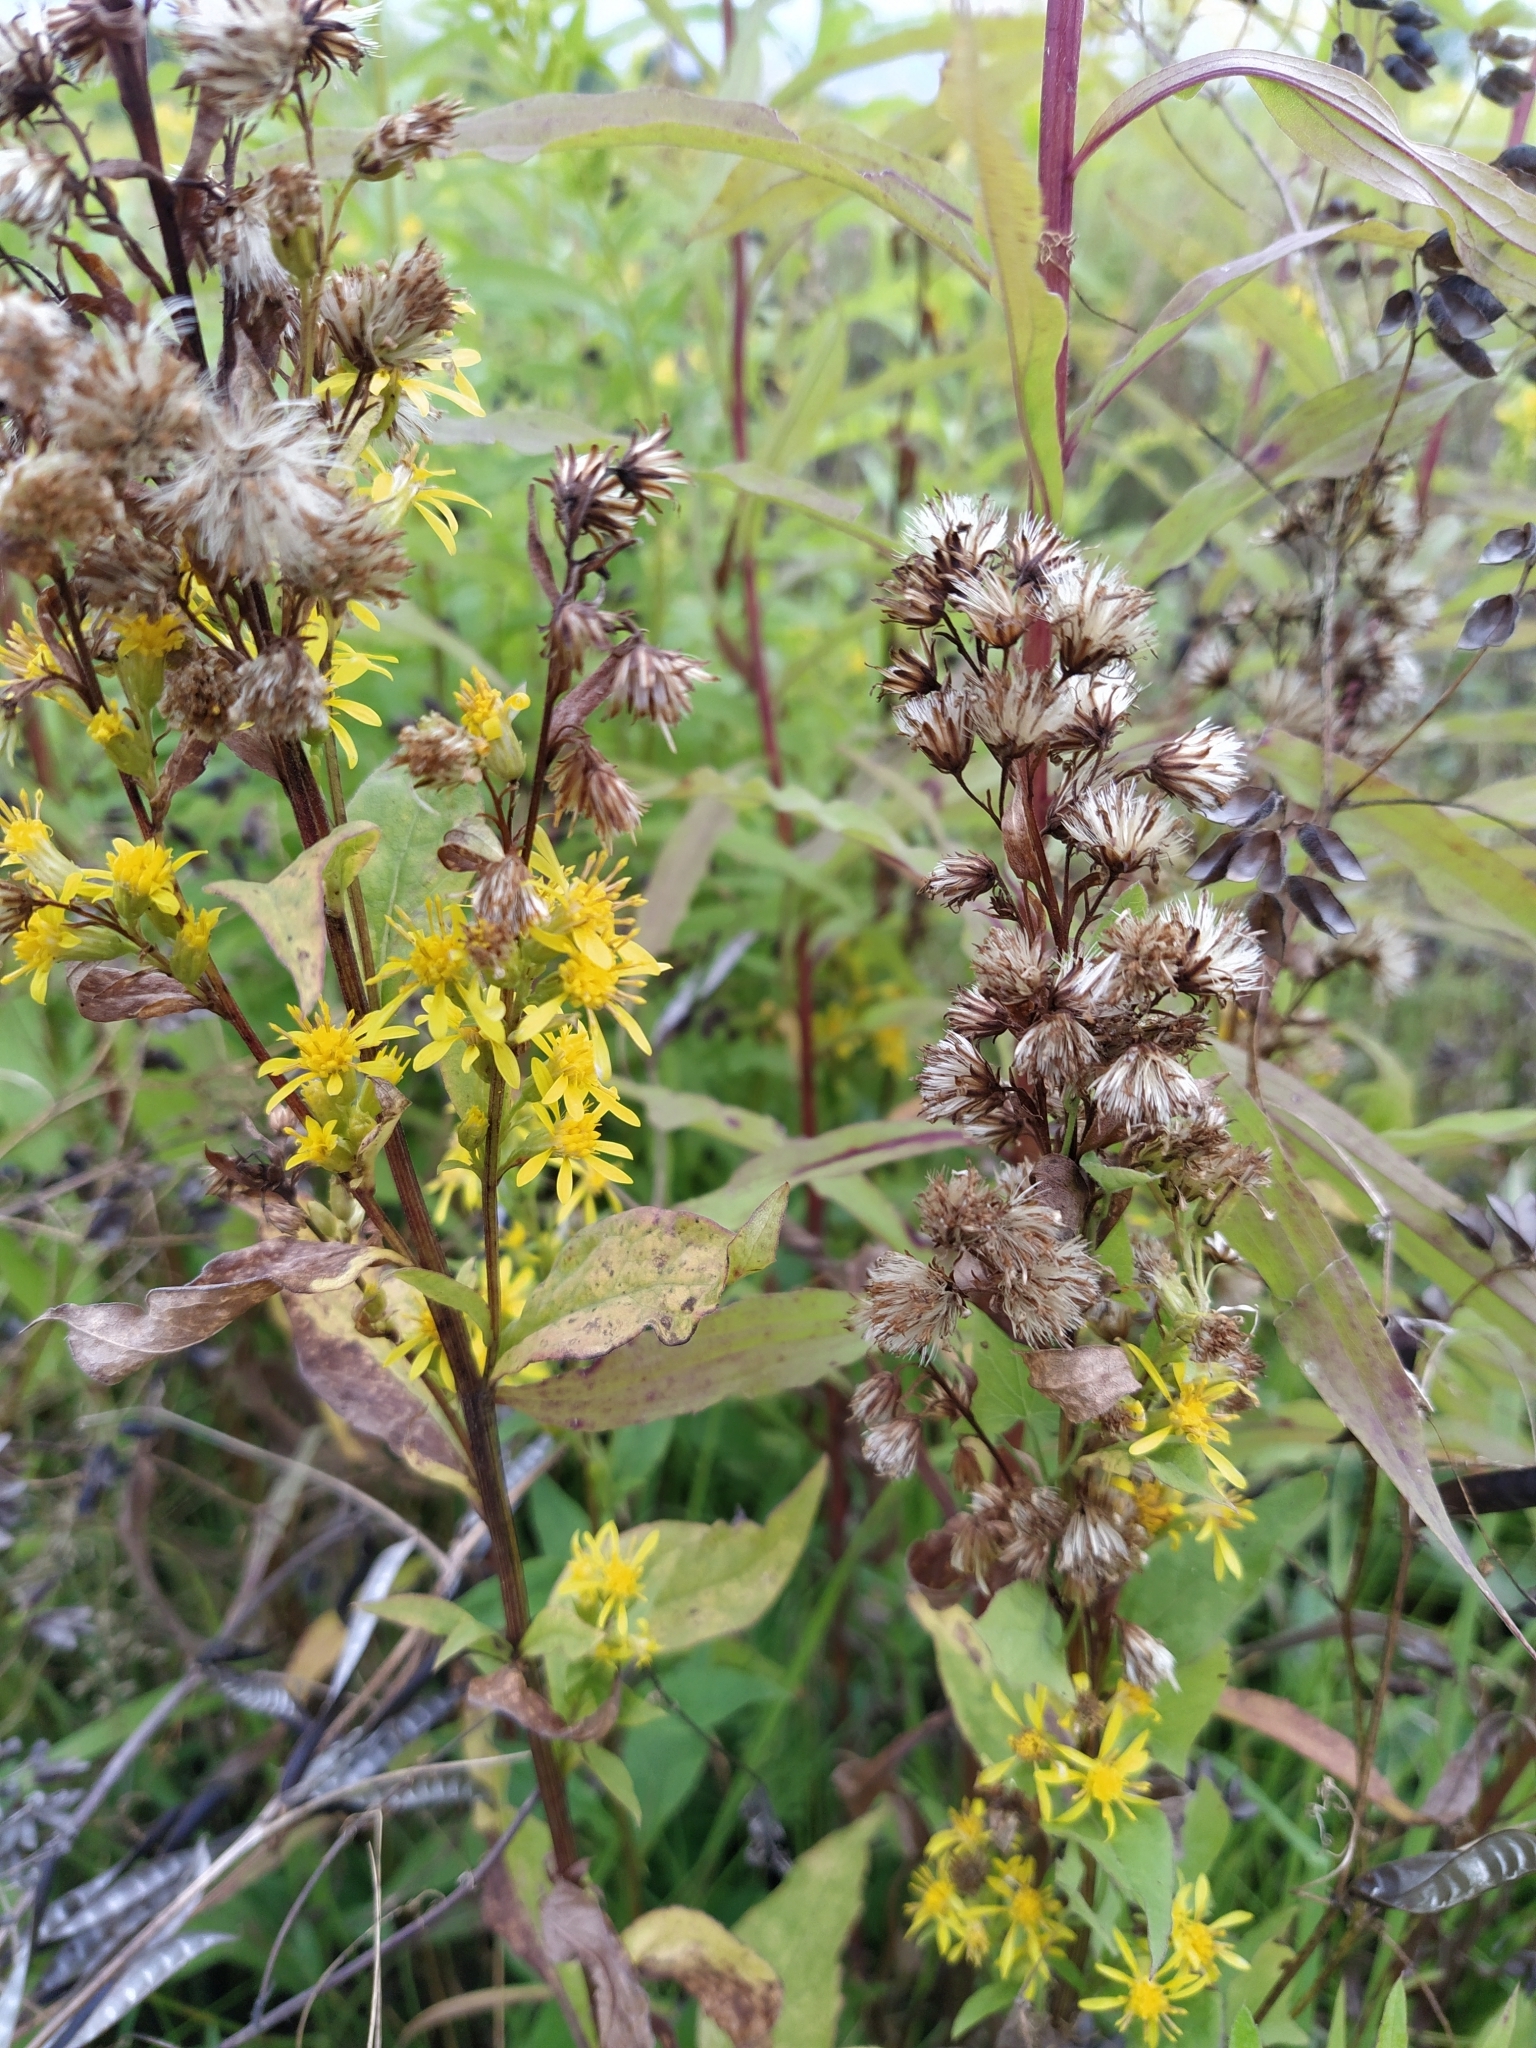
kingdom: Plantae
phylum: Tracheophyta
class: Magnoliopsida
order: Asterales
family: Asteraceae
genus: Solidago
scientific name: Solidago virgaurea
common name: Goldenrod
